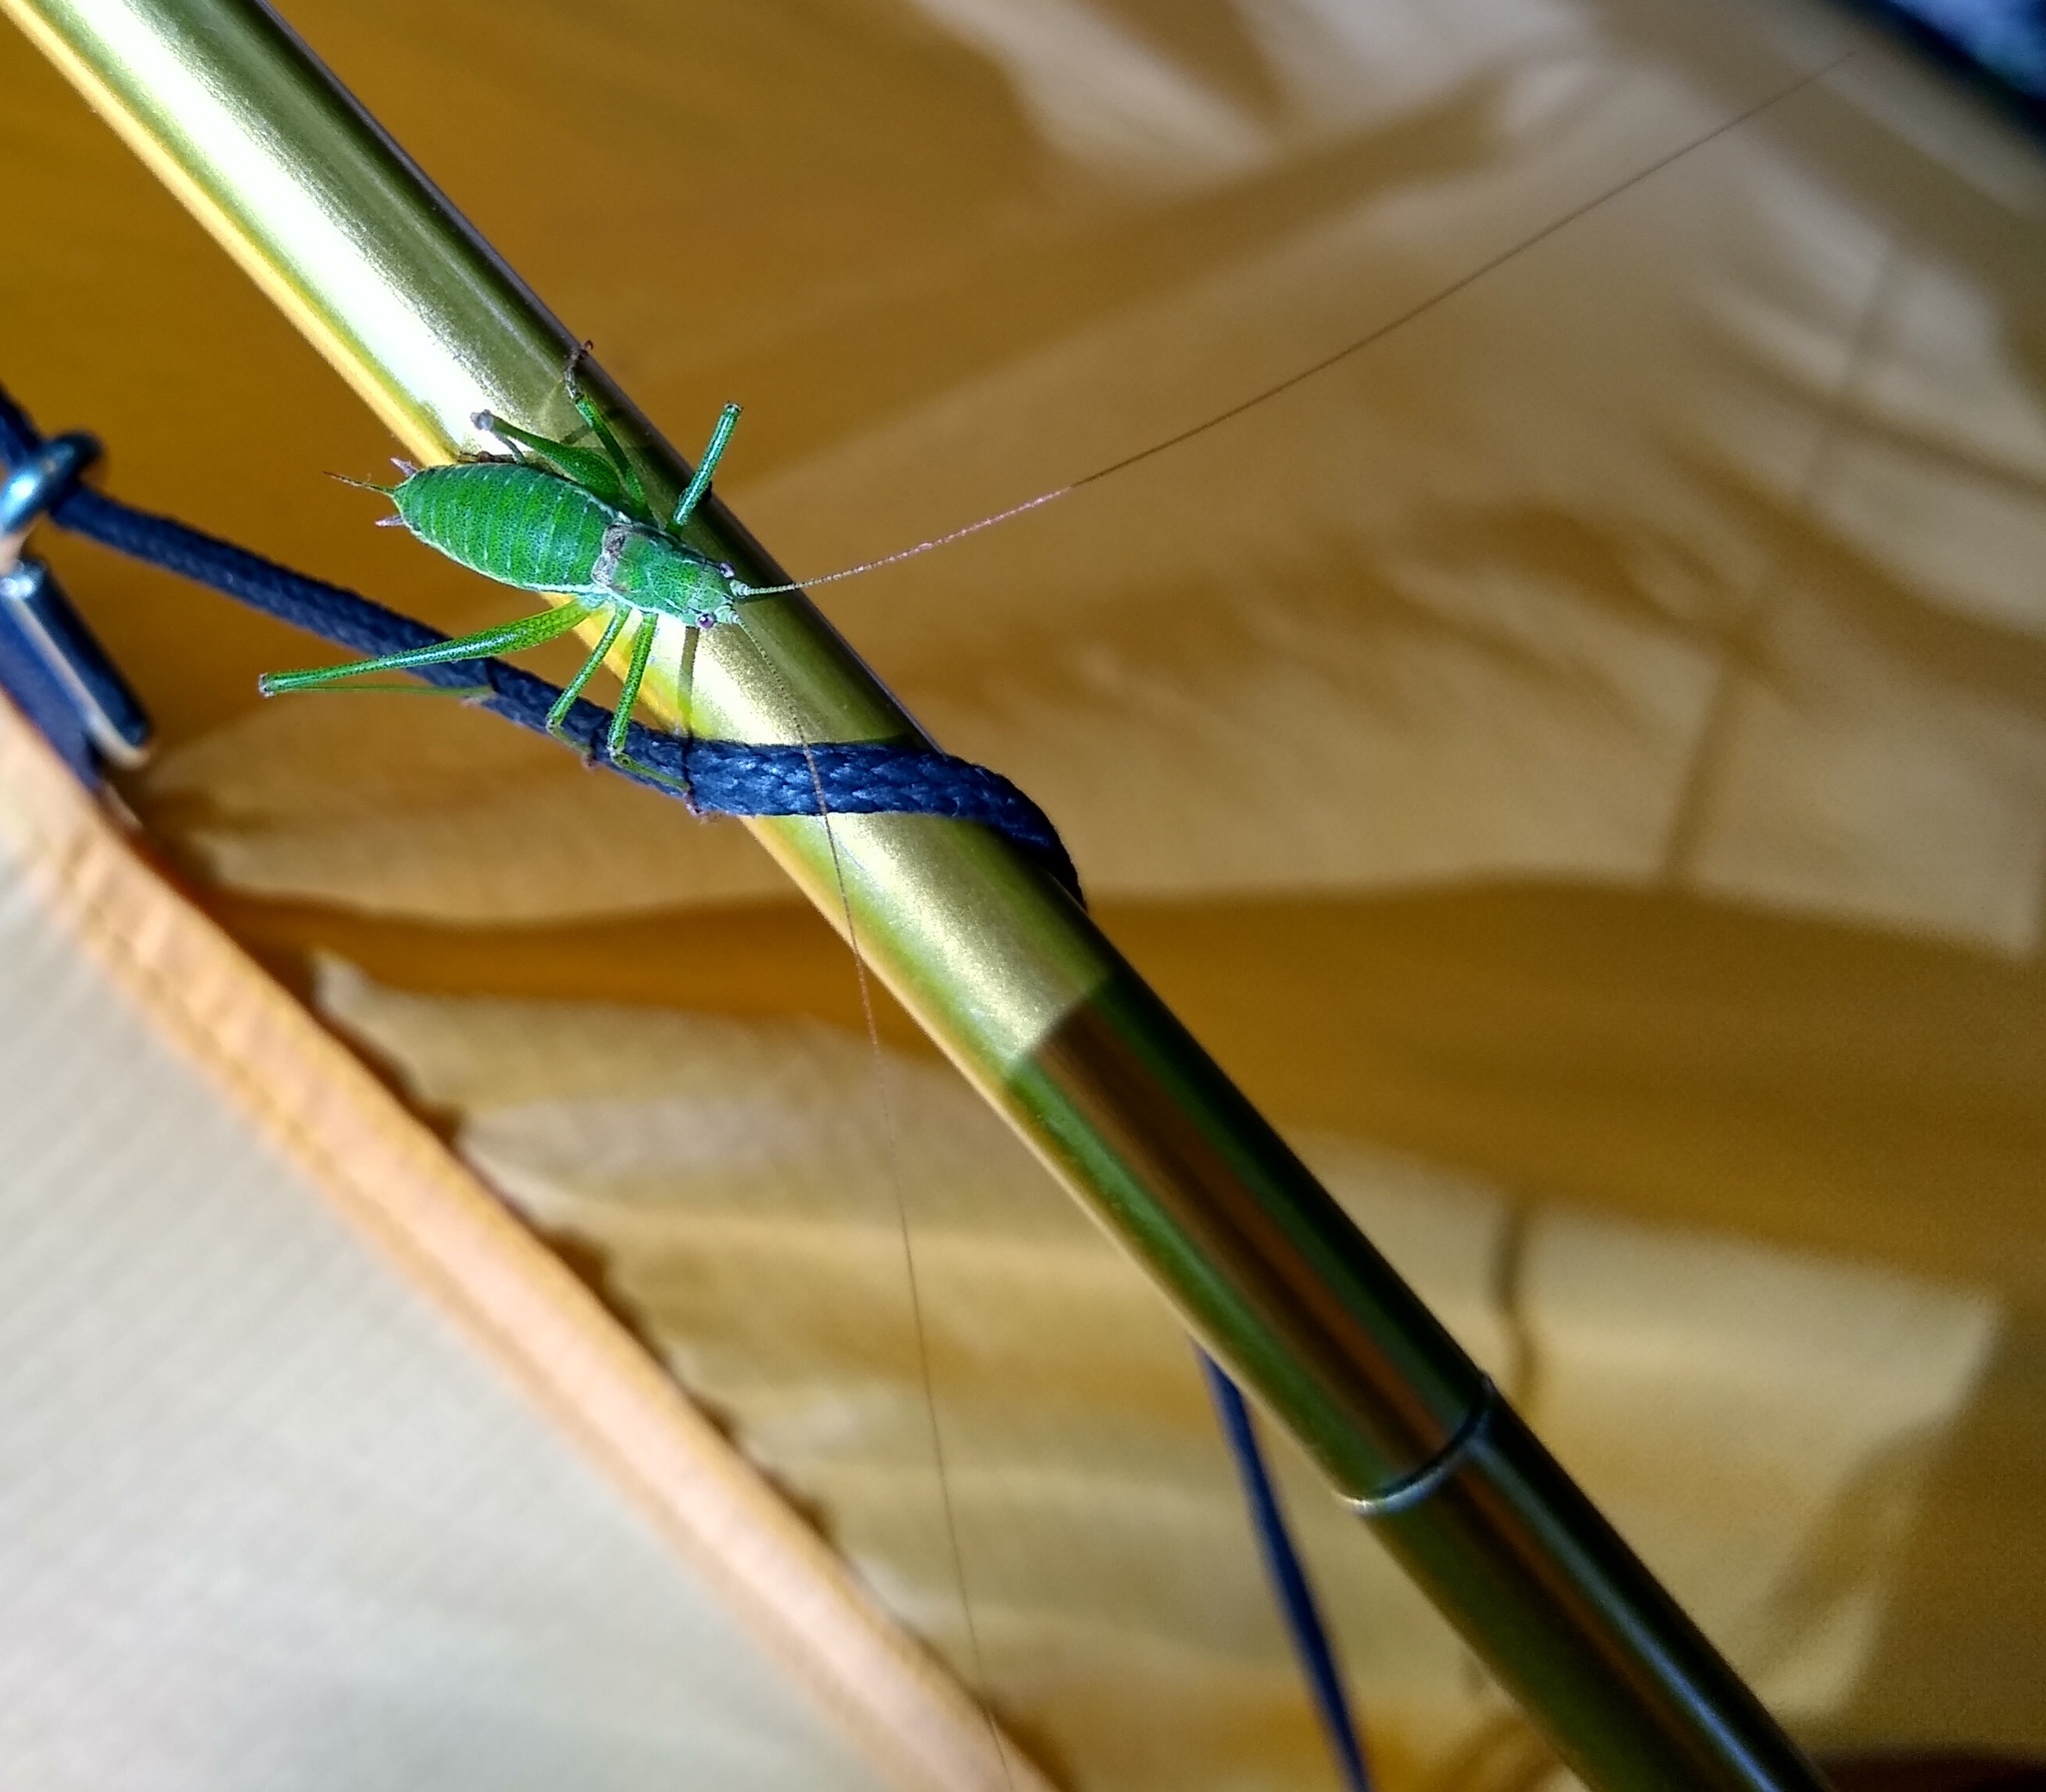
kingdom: Animalia
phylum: Arthropoda
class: Insecta
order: Orthoptera
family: Tettigoniidae
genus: Leptophyes
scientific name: Leptophyes albovittata
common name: Striped bush-cricket
